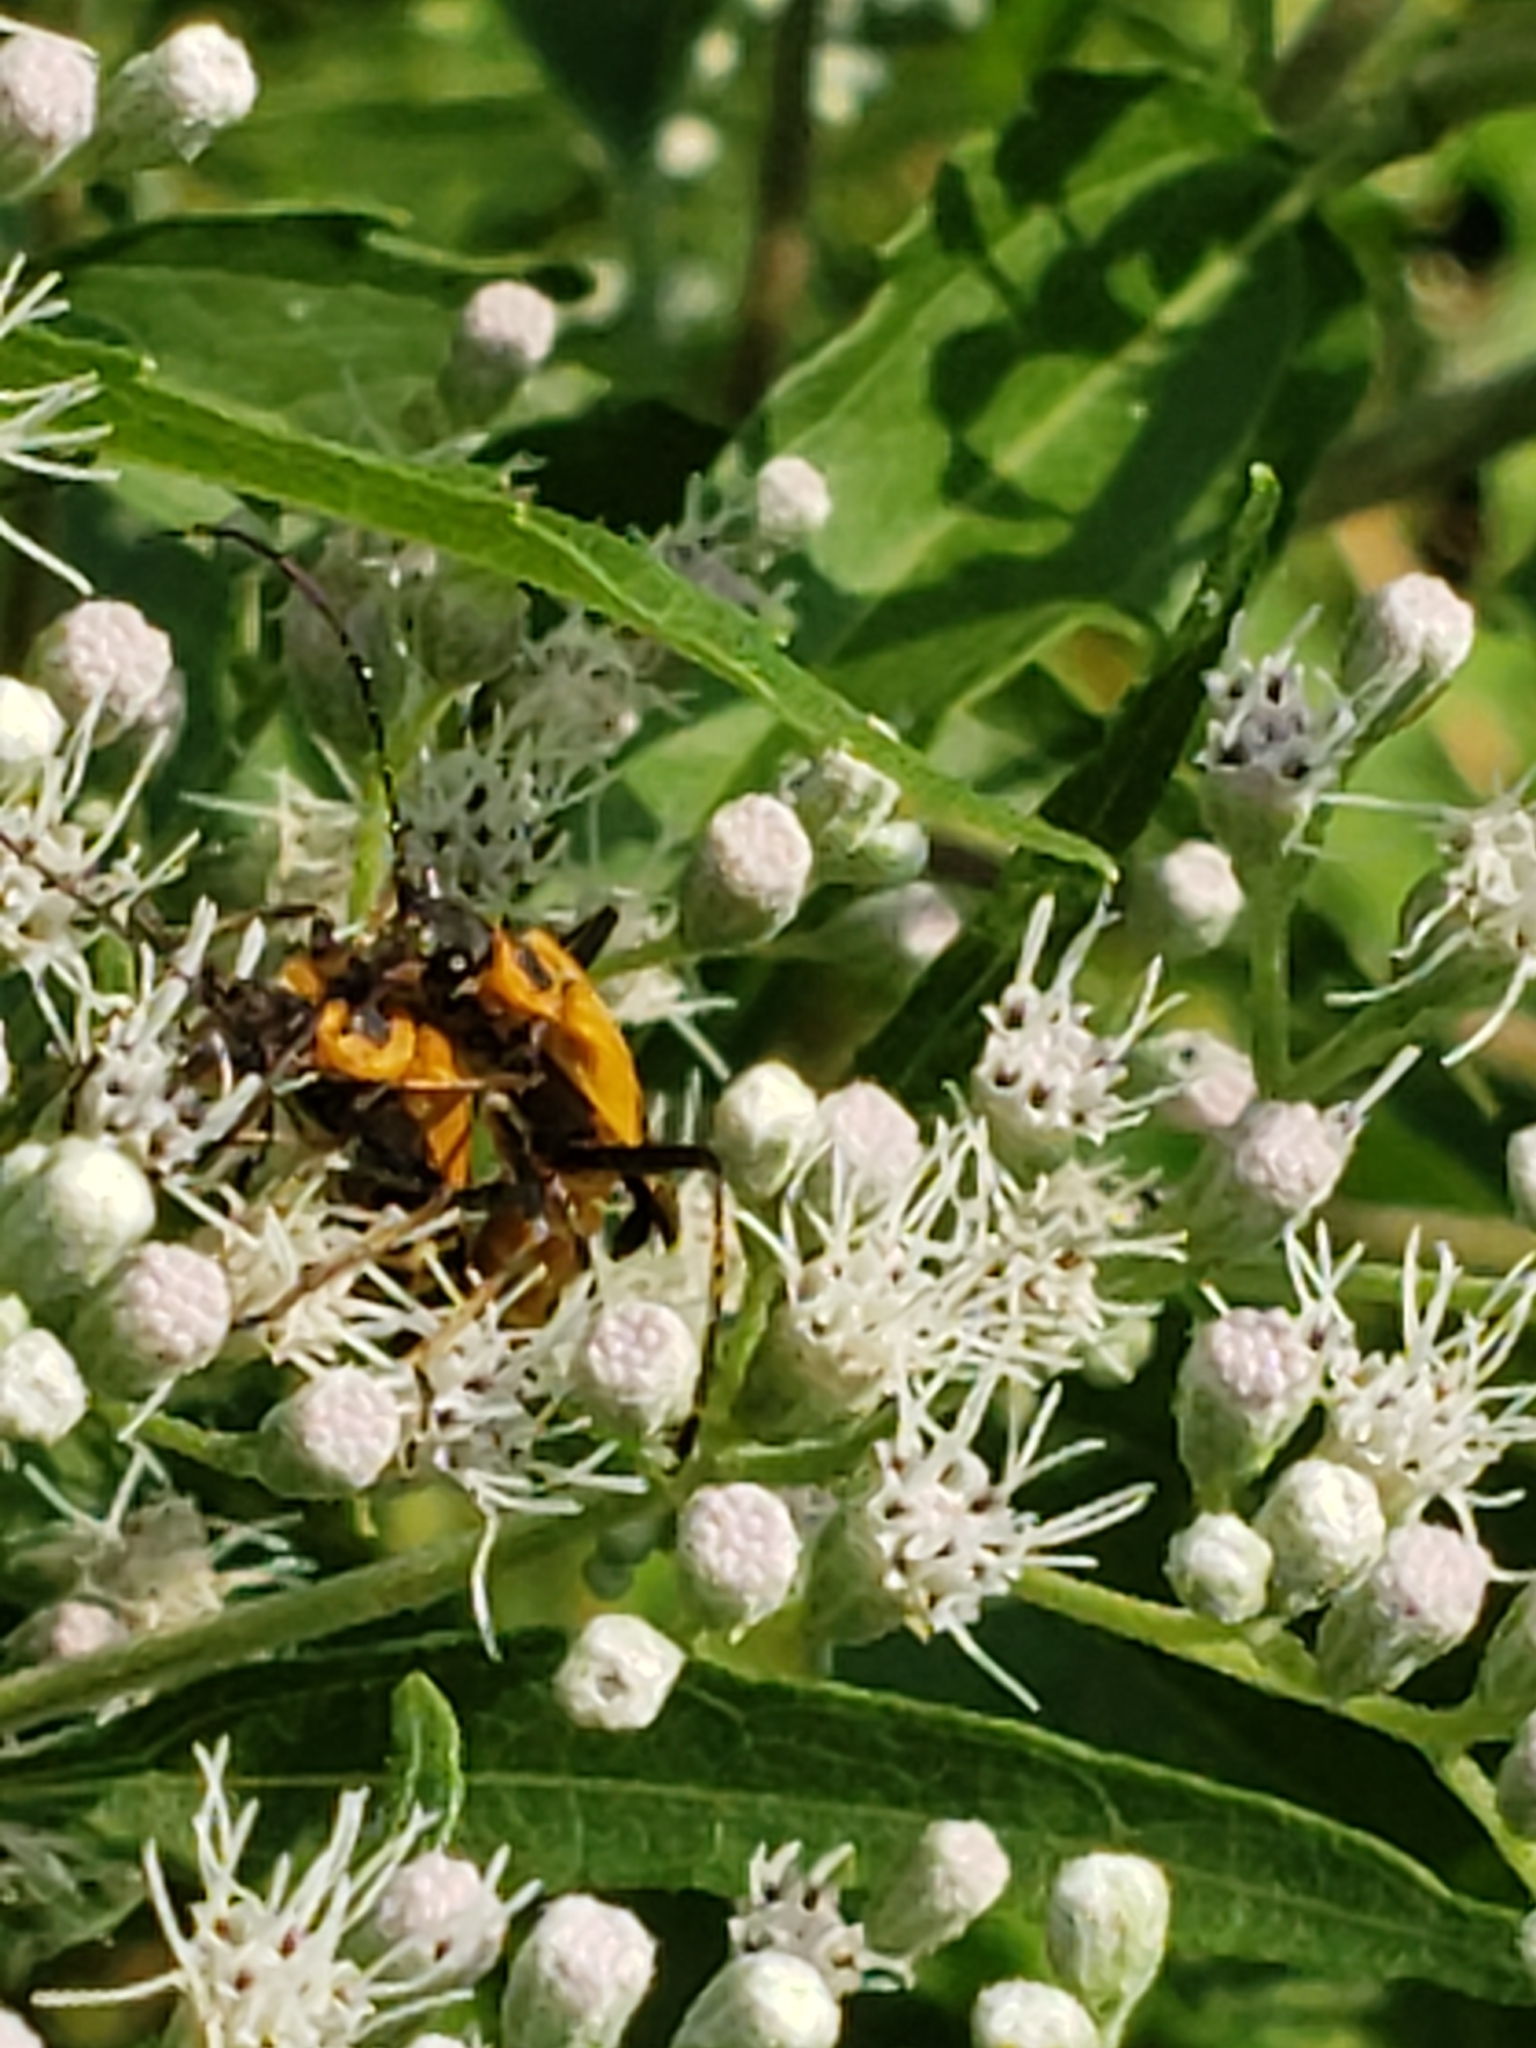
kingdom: Animalia
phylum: Arthropoda
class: Insecta
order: Coleoptera
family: Cantharidae
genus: Chauliognathus
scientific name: Chauliognathus pensylvanicus
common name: Goldenrod soldier beetle
